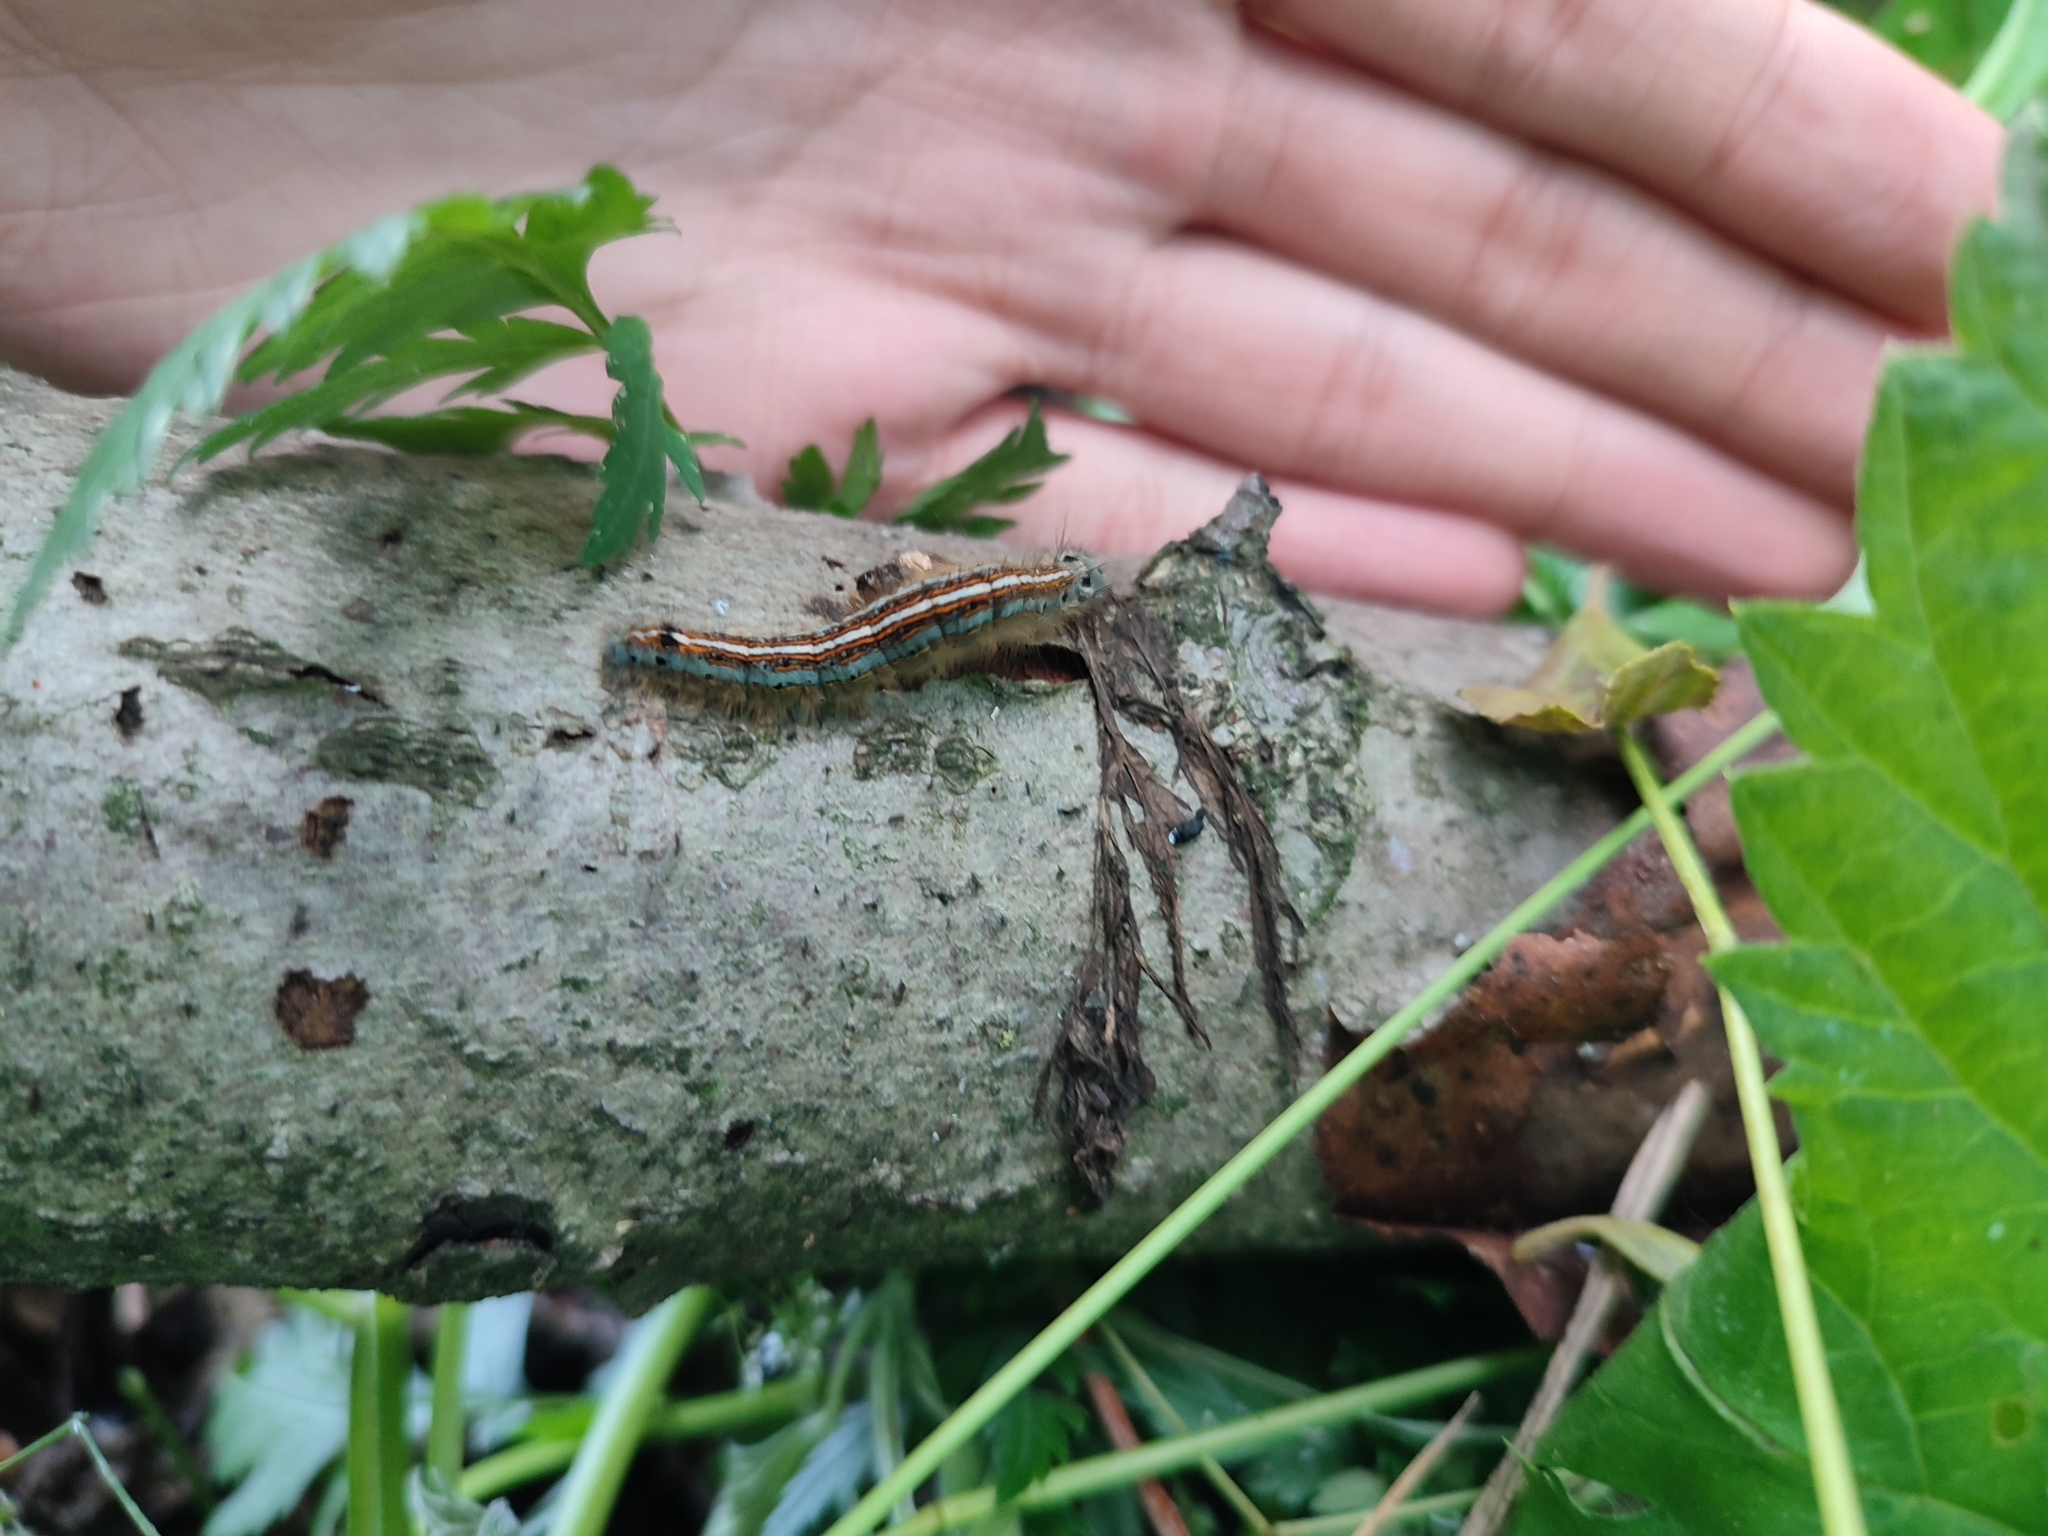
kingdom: Animalia
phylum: Arthropoda
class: Insecta
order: Lepidoptera
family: Lasiocampidae
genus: Malacosoma
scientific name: Malacosoma neustria
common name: The lackey
